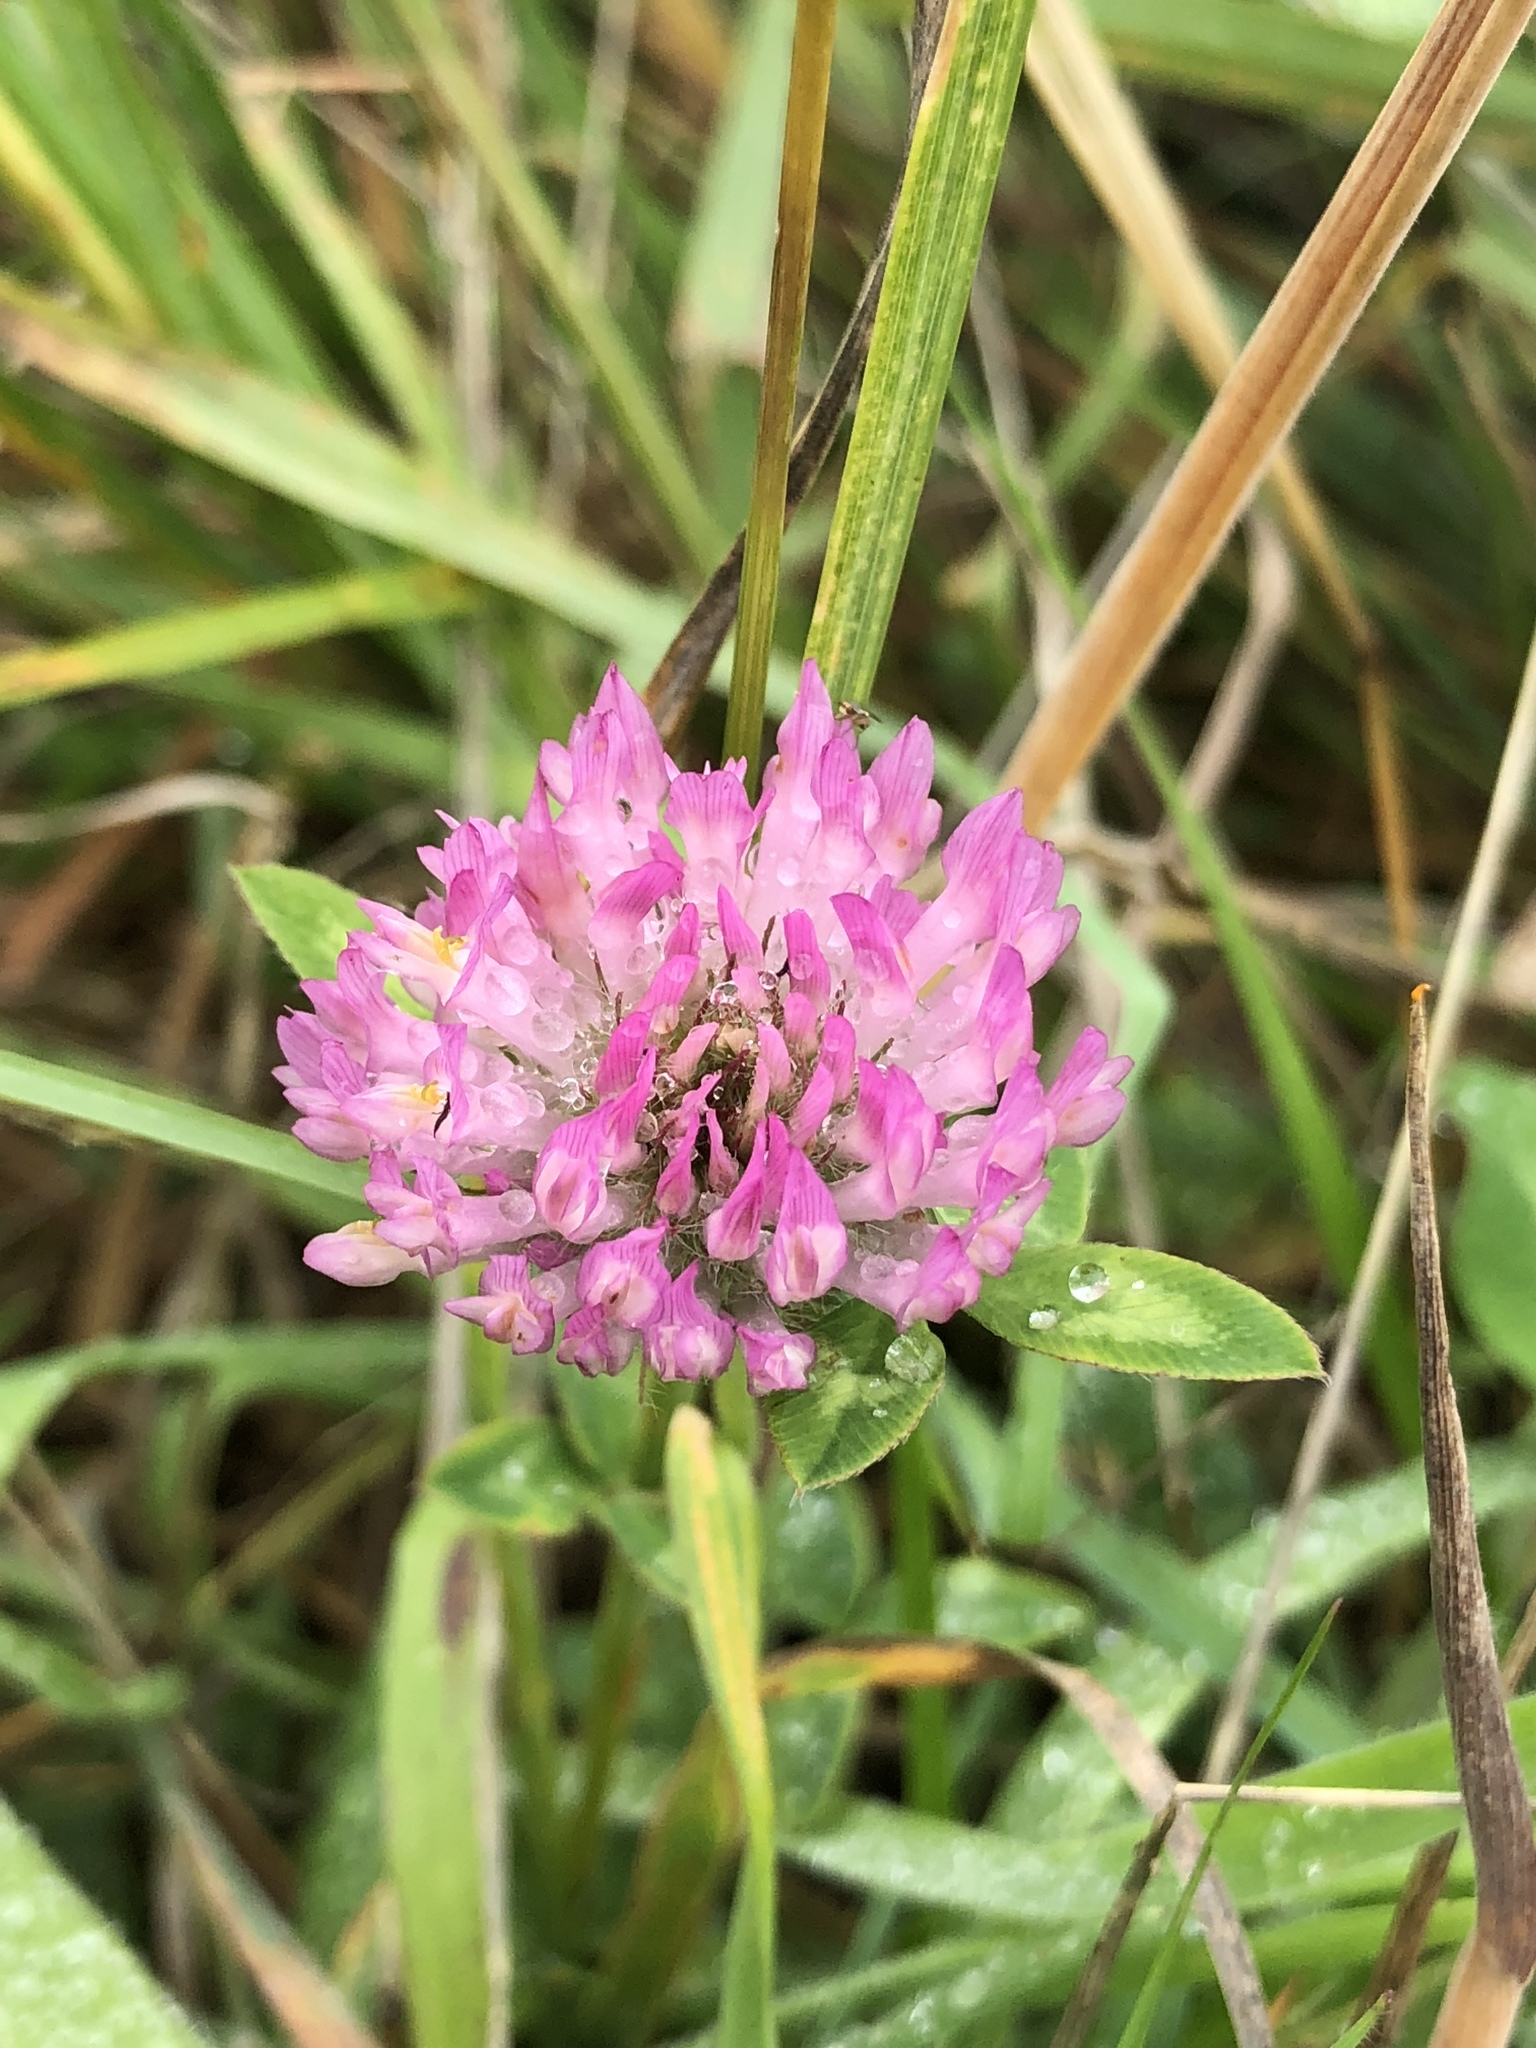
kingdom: Plantae
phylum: Tracheophyta
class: Magnoliopsida
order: Fabales
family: Fabaceae
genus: Trifolium
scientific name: Trifolium pratense
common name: Red clover
